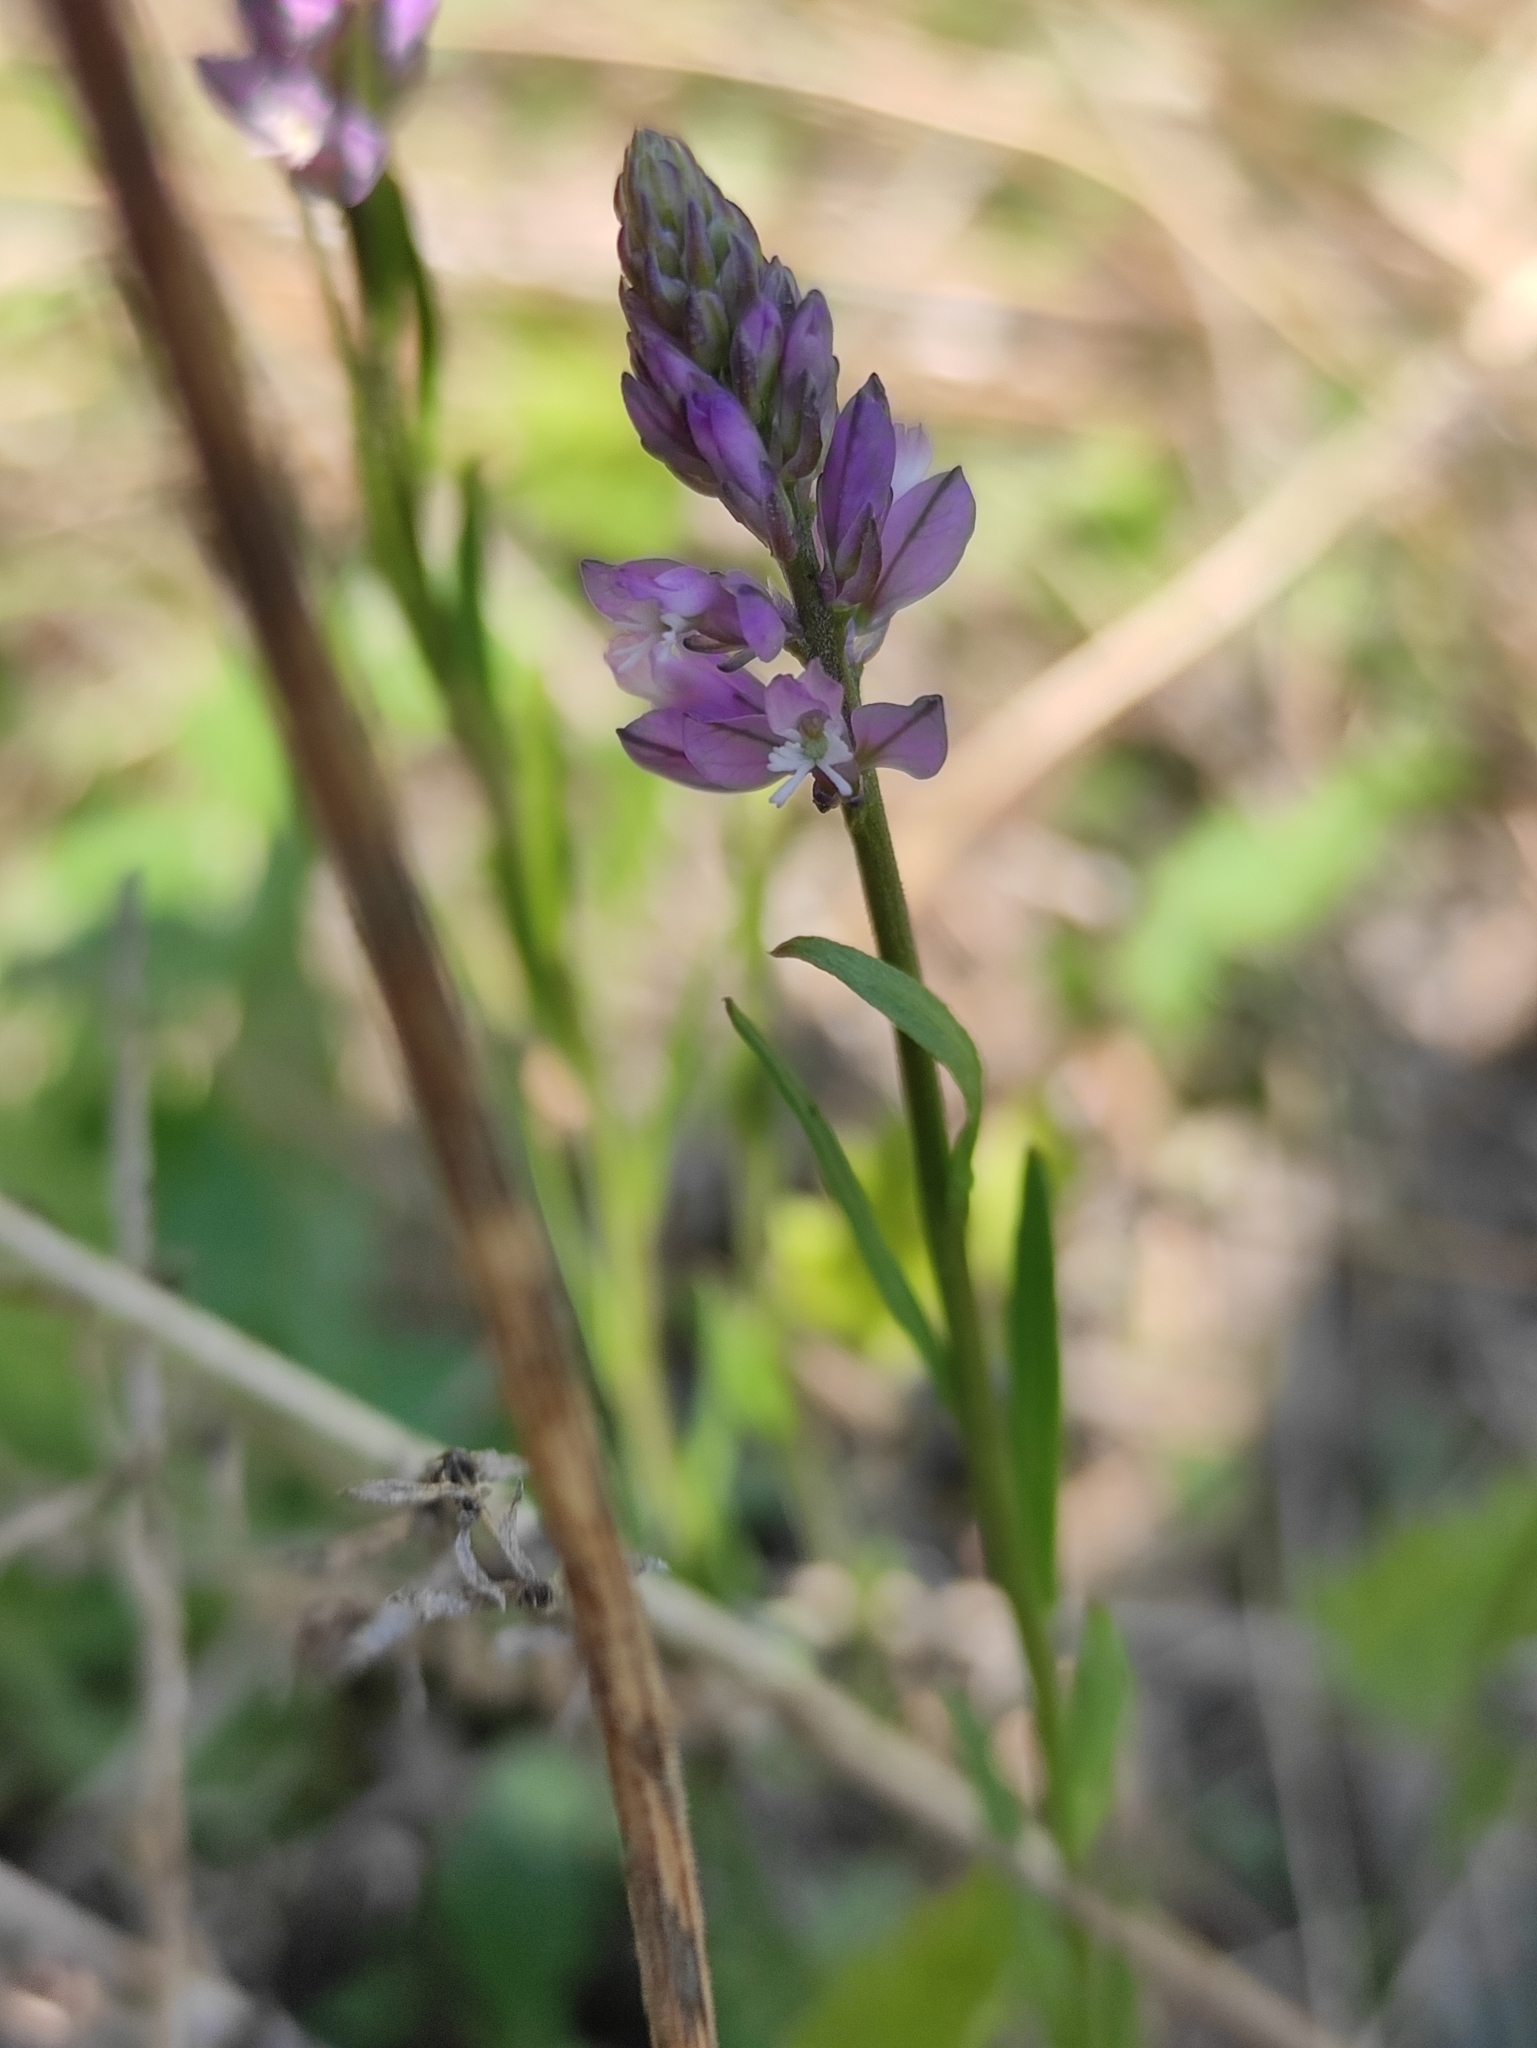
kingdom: Plantae
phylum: Tracheophyta
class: Magnoliopsida
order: Fabales
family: Polygalaceae
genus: Polygala
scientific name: Polygala comosa
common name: Tufted milkwort
